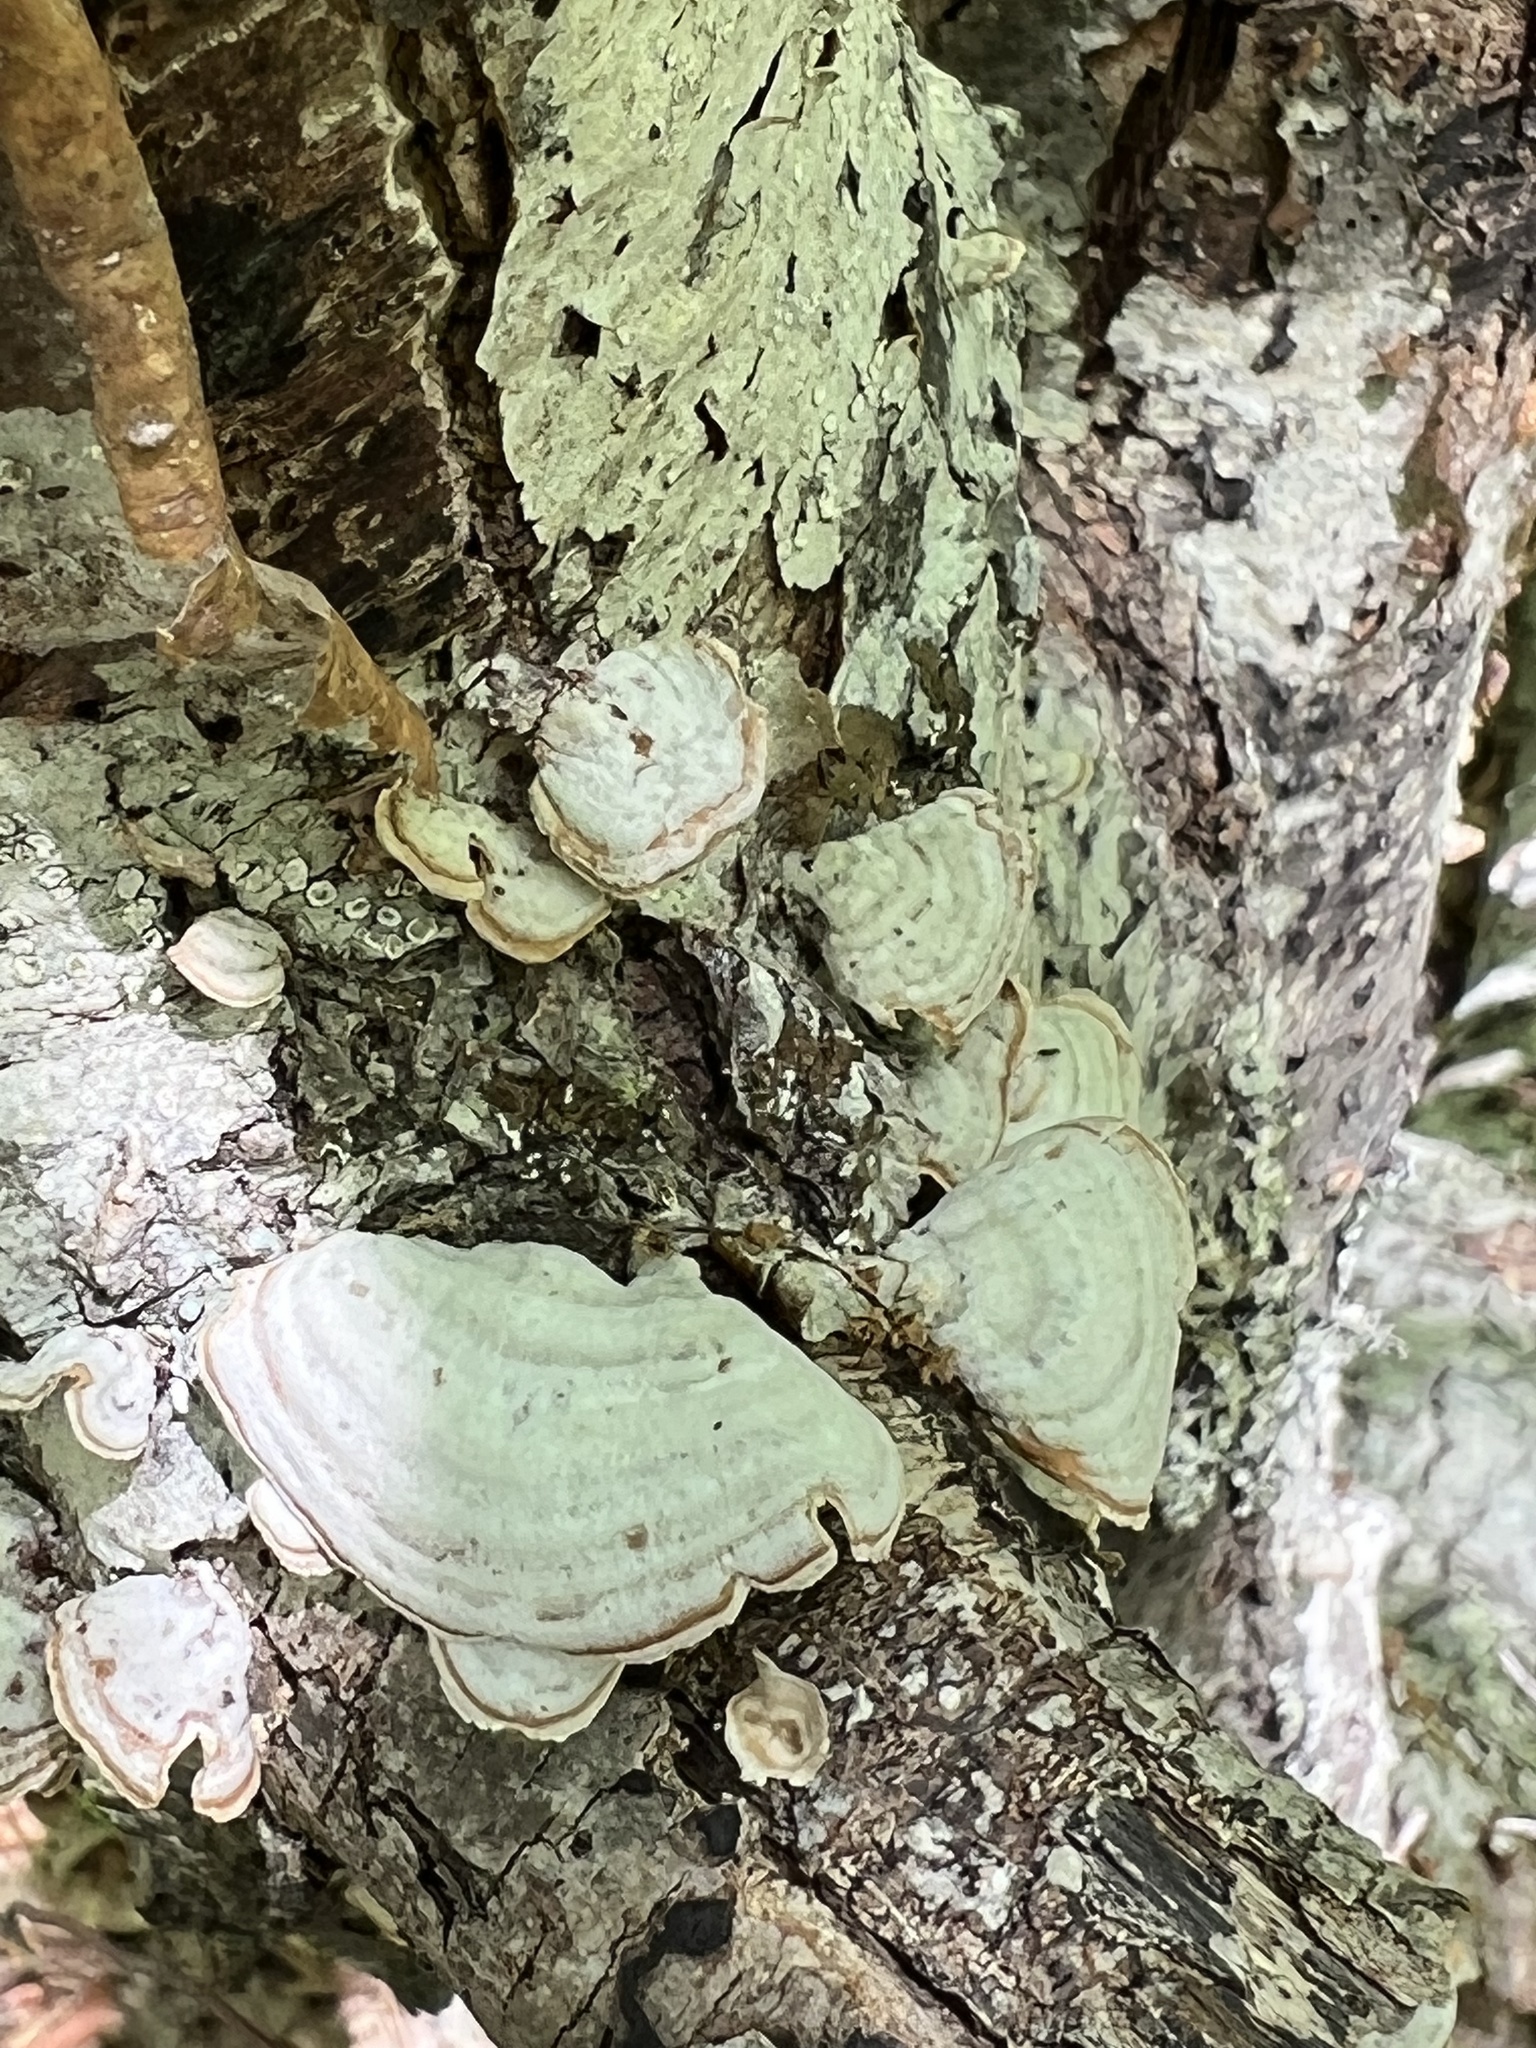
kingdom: Fungi
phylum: Basidiomycota
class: Agaricomycetes
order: Russulales
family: Stereaceae
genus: Stereum
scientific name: Stereum lobatum
